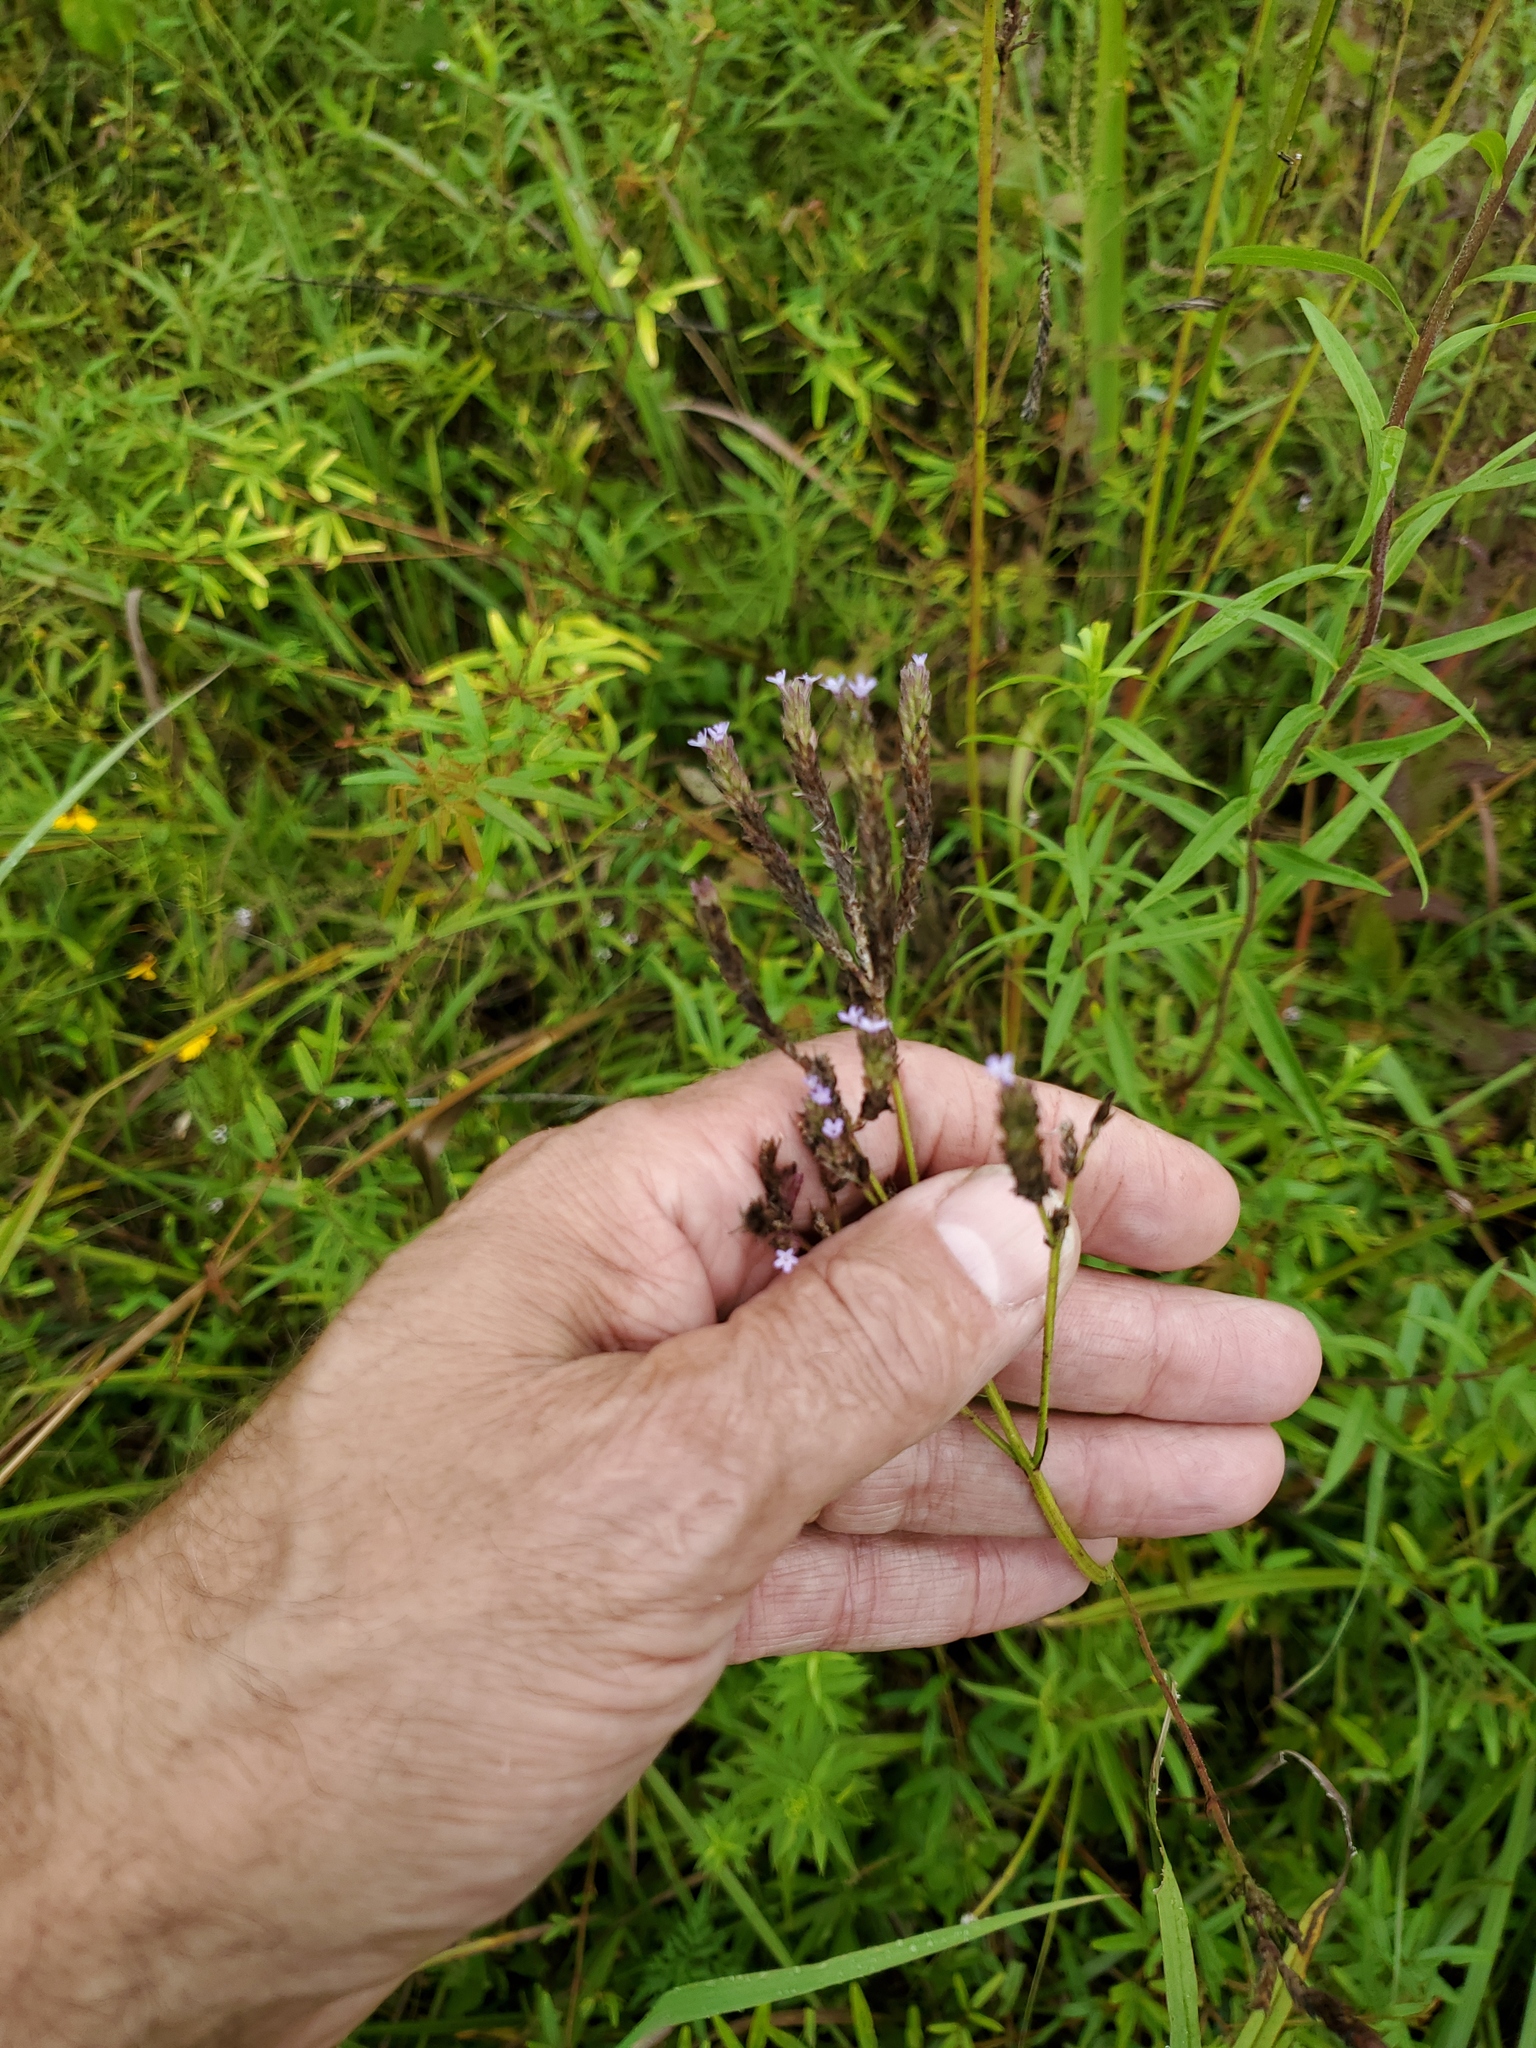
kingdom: Plantae
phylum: Tracheophyta
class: Magnoliopsida
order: Lamiales
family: Verbenaceae
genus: Verbena
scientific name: Verbena brasiliensis
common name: Brazilian vervain
